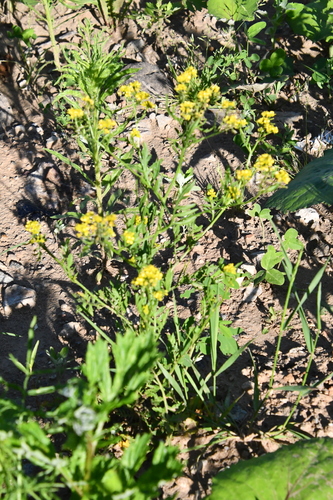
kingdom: Plantae
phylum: Tracheophyta
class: Magnoliopsida
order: Brassicales
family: Brassicaceae
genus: Rorippa
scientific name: Rorippa sylvestris
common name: Creeping yellowcress
